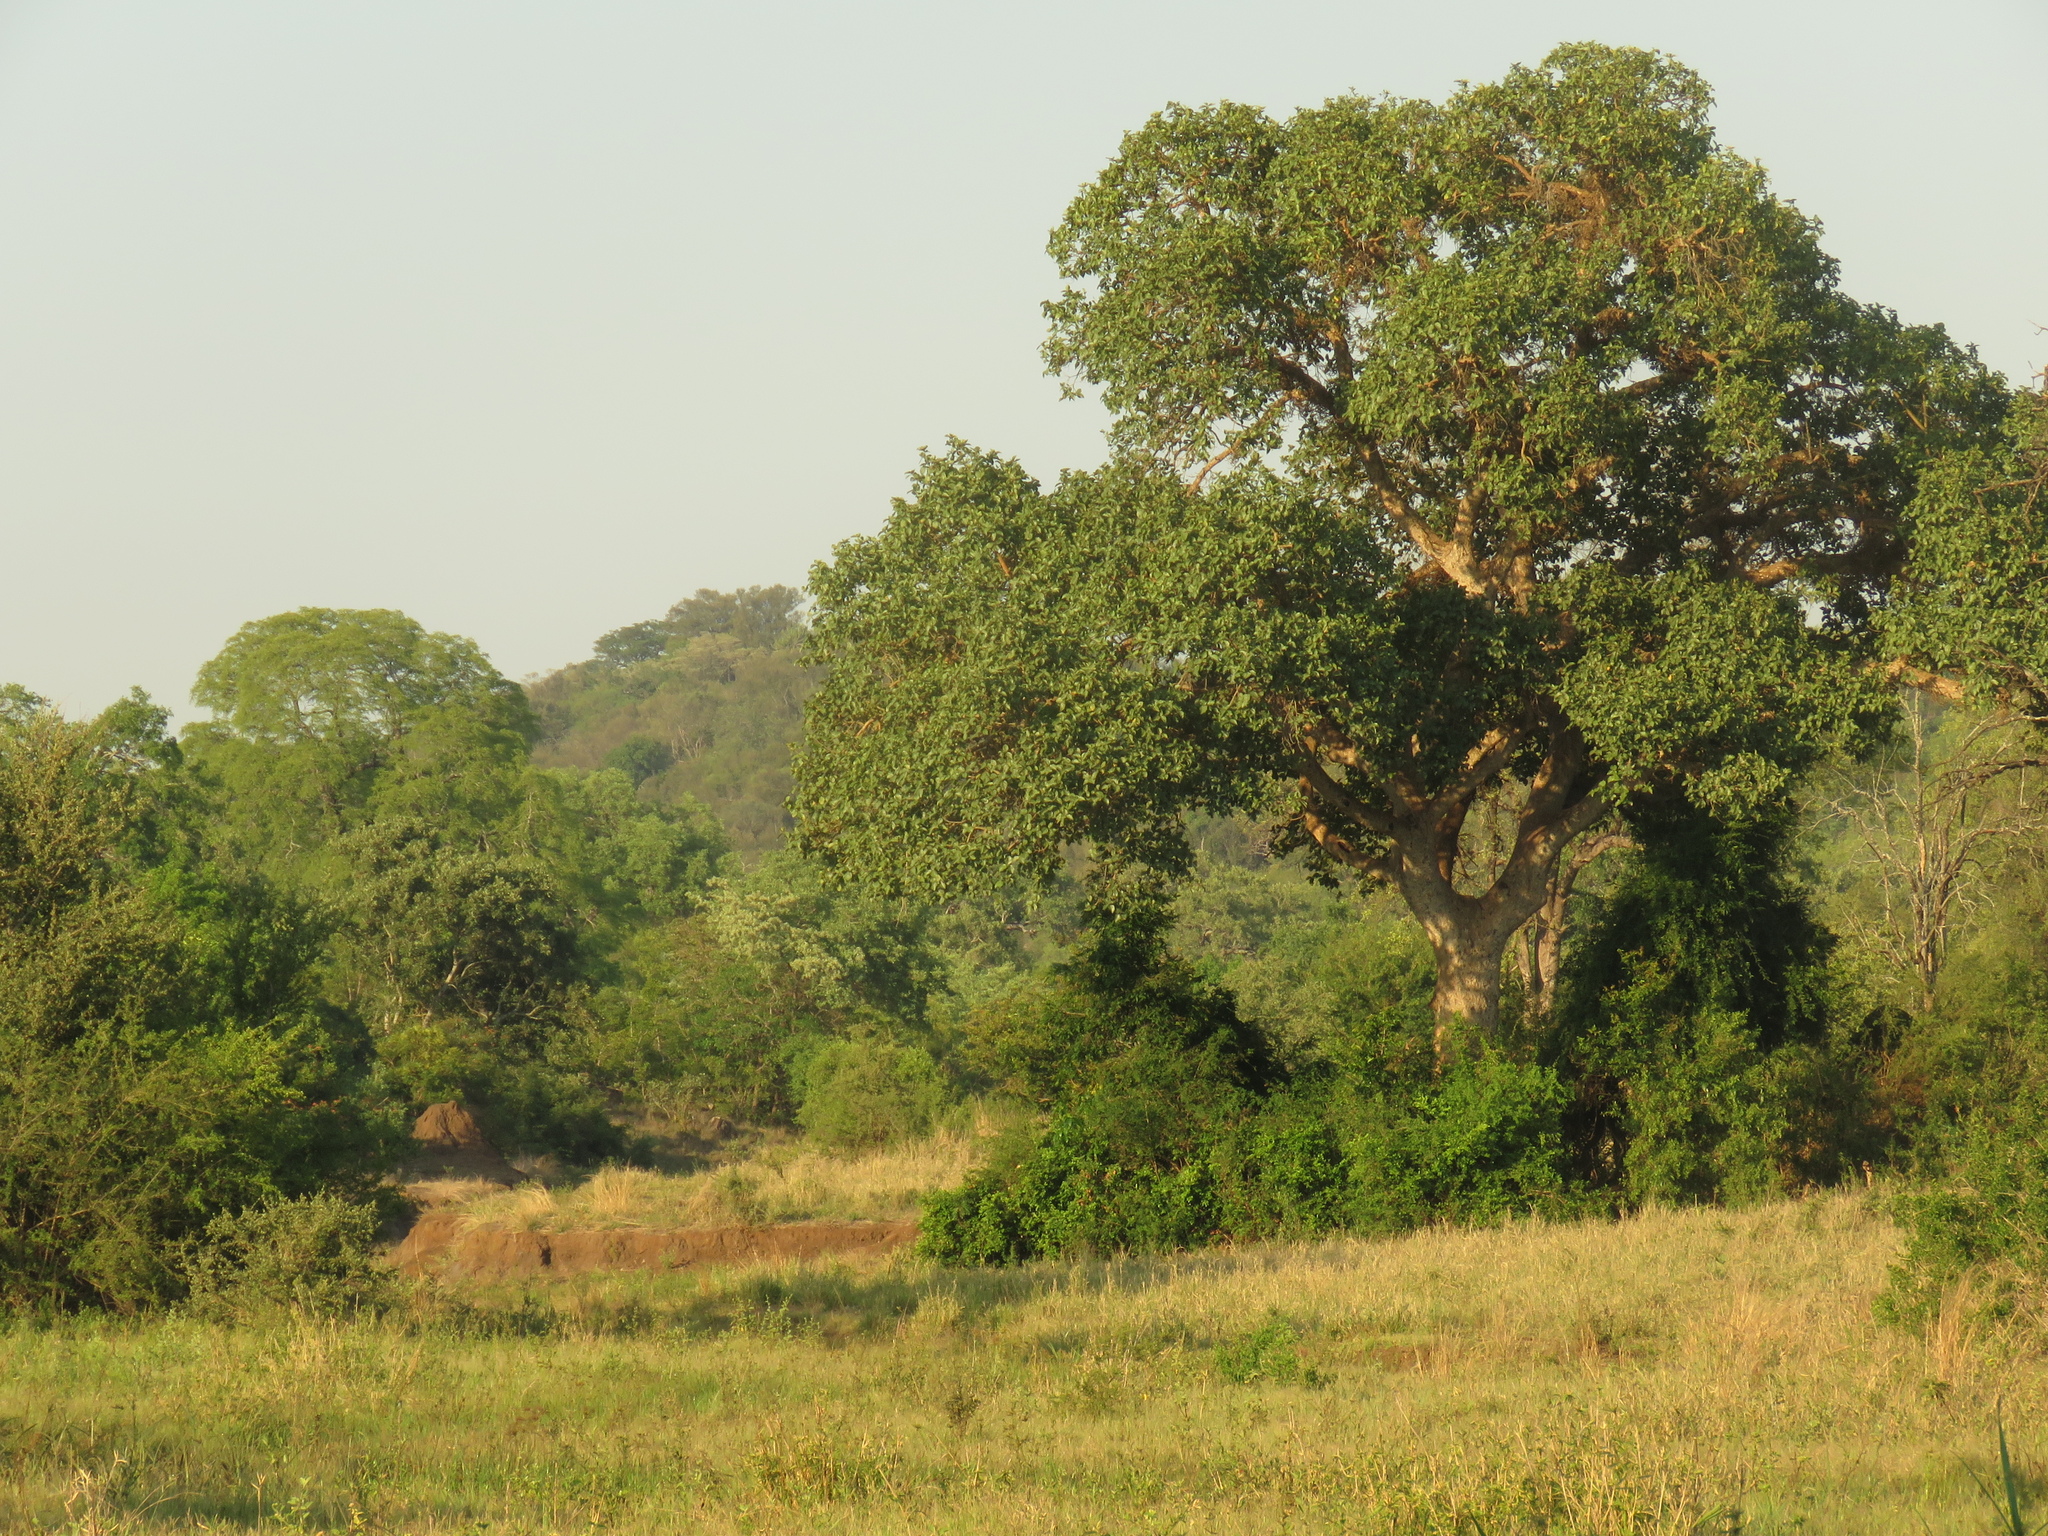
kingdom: Plantae
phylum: Tracheophyta
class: Magnoliopsida
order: Rosales
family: Moraceae
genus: Ficus
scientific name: Ficus sycomorus
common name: Sycomore
